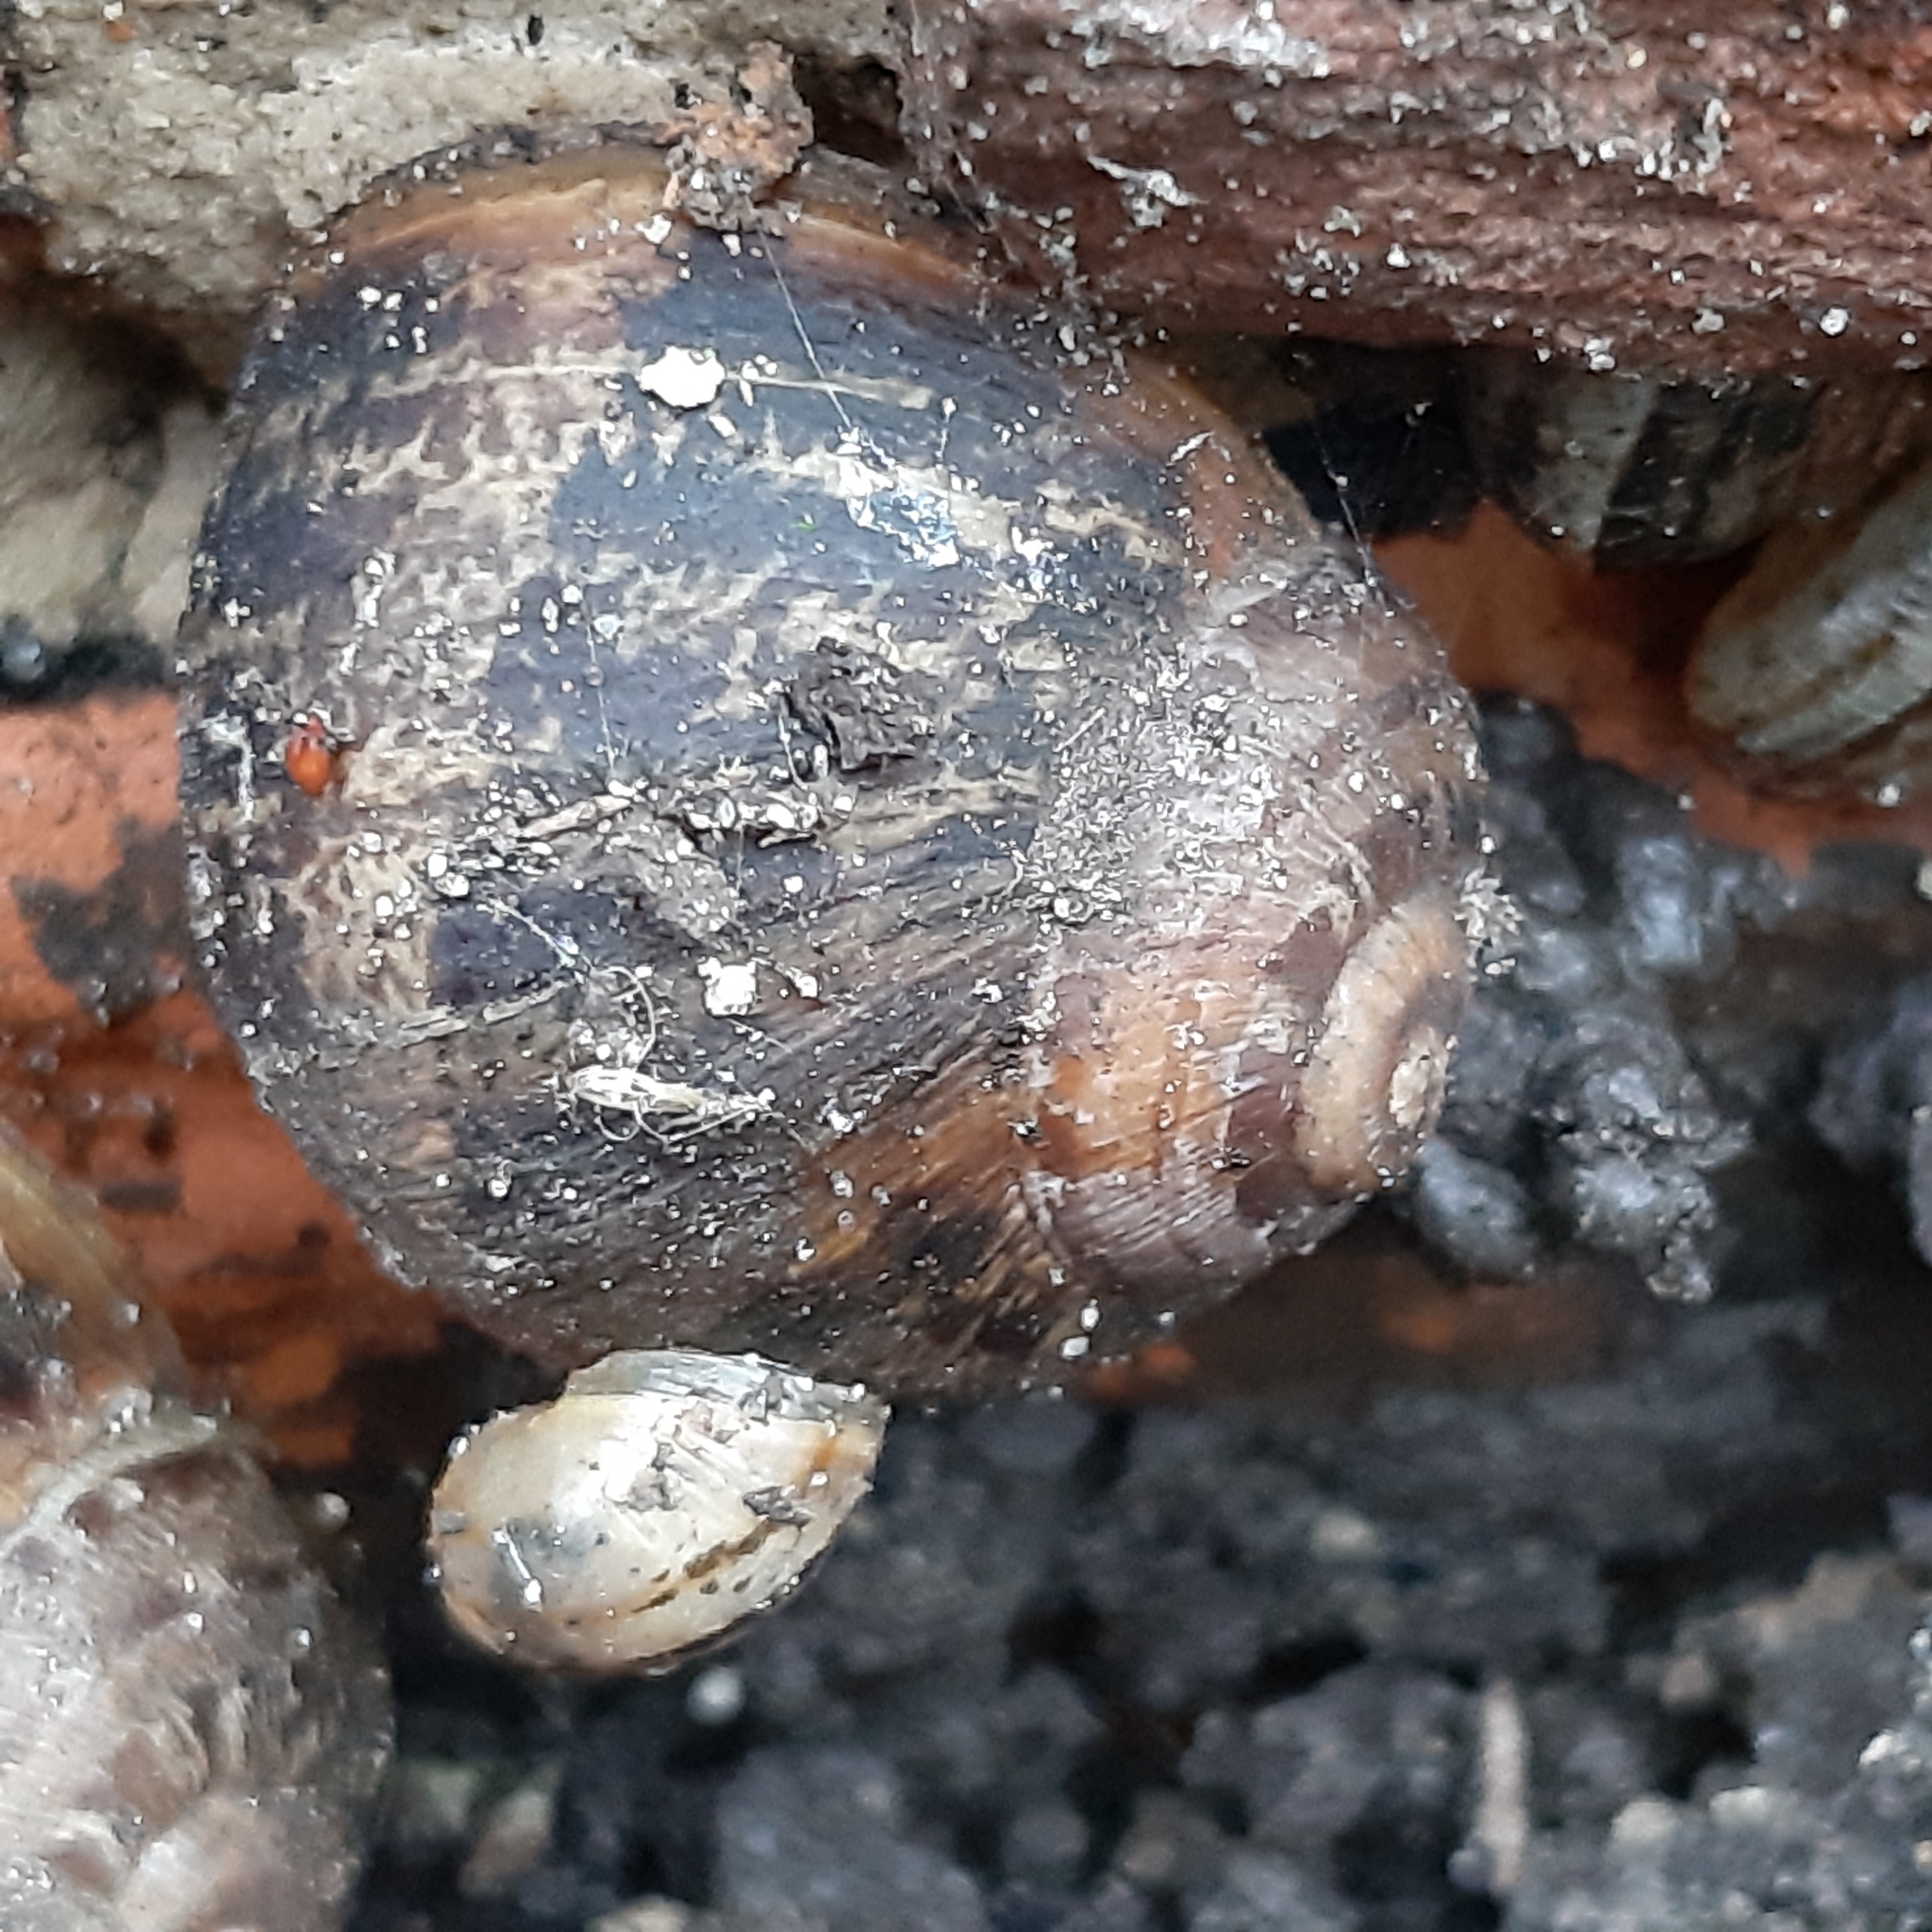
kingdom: Animalia
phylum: Mollusca
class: Gastropoda
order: Stylommatophora
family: Helicidae
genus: Cornu
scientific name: Cornu aspersum
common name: Brown garden snail
